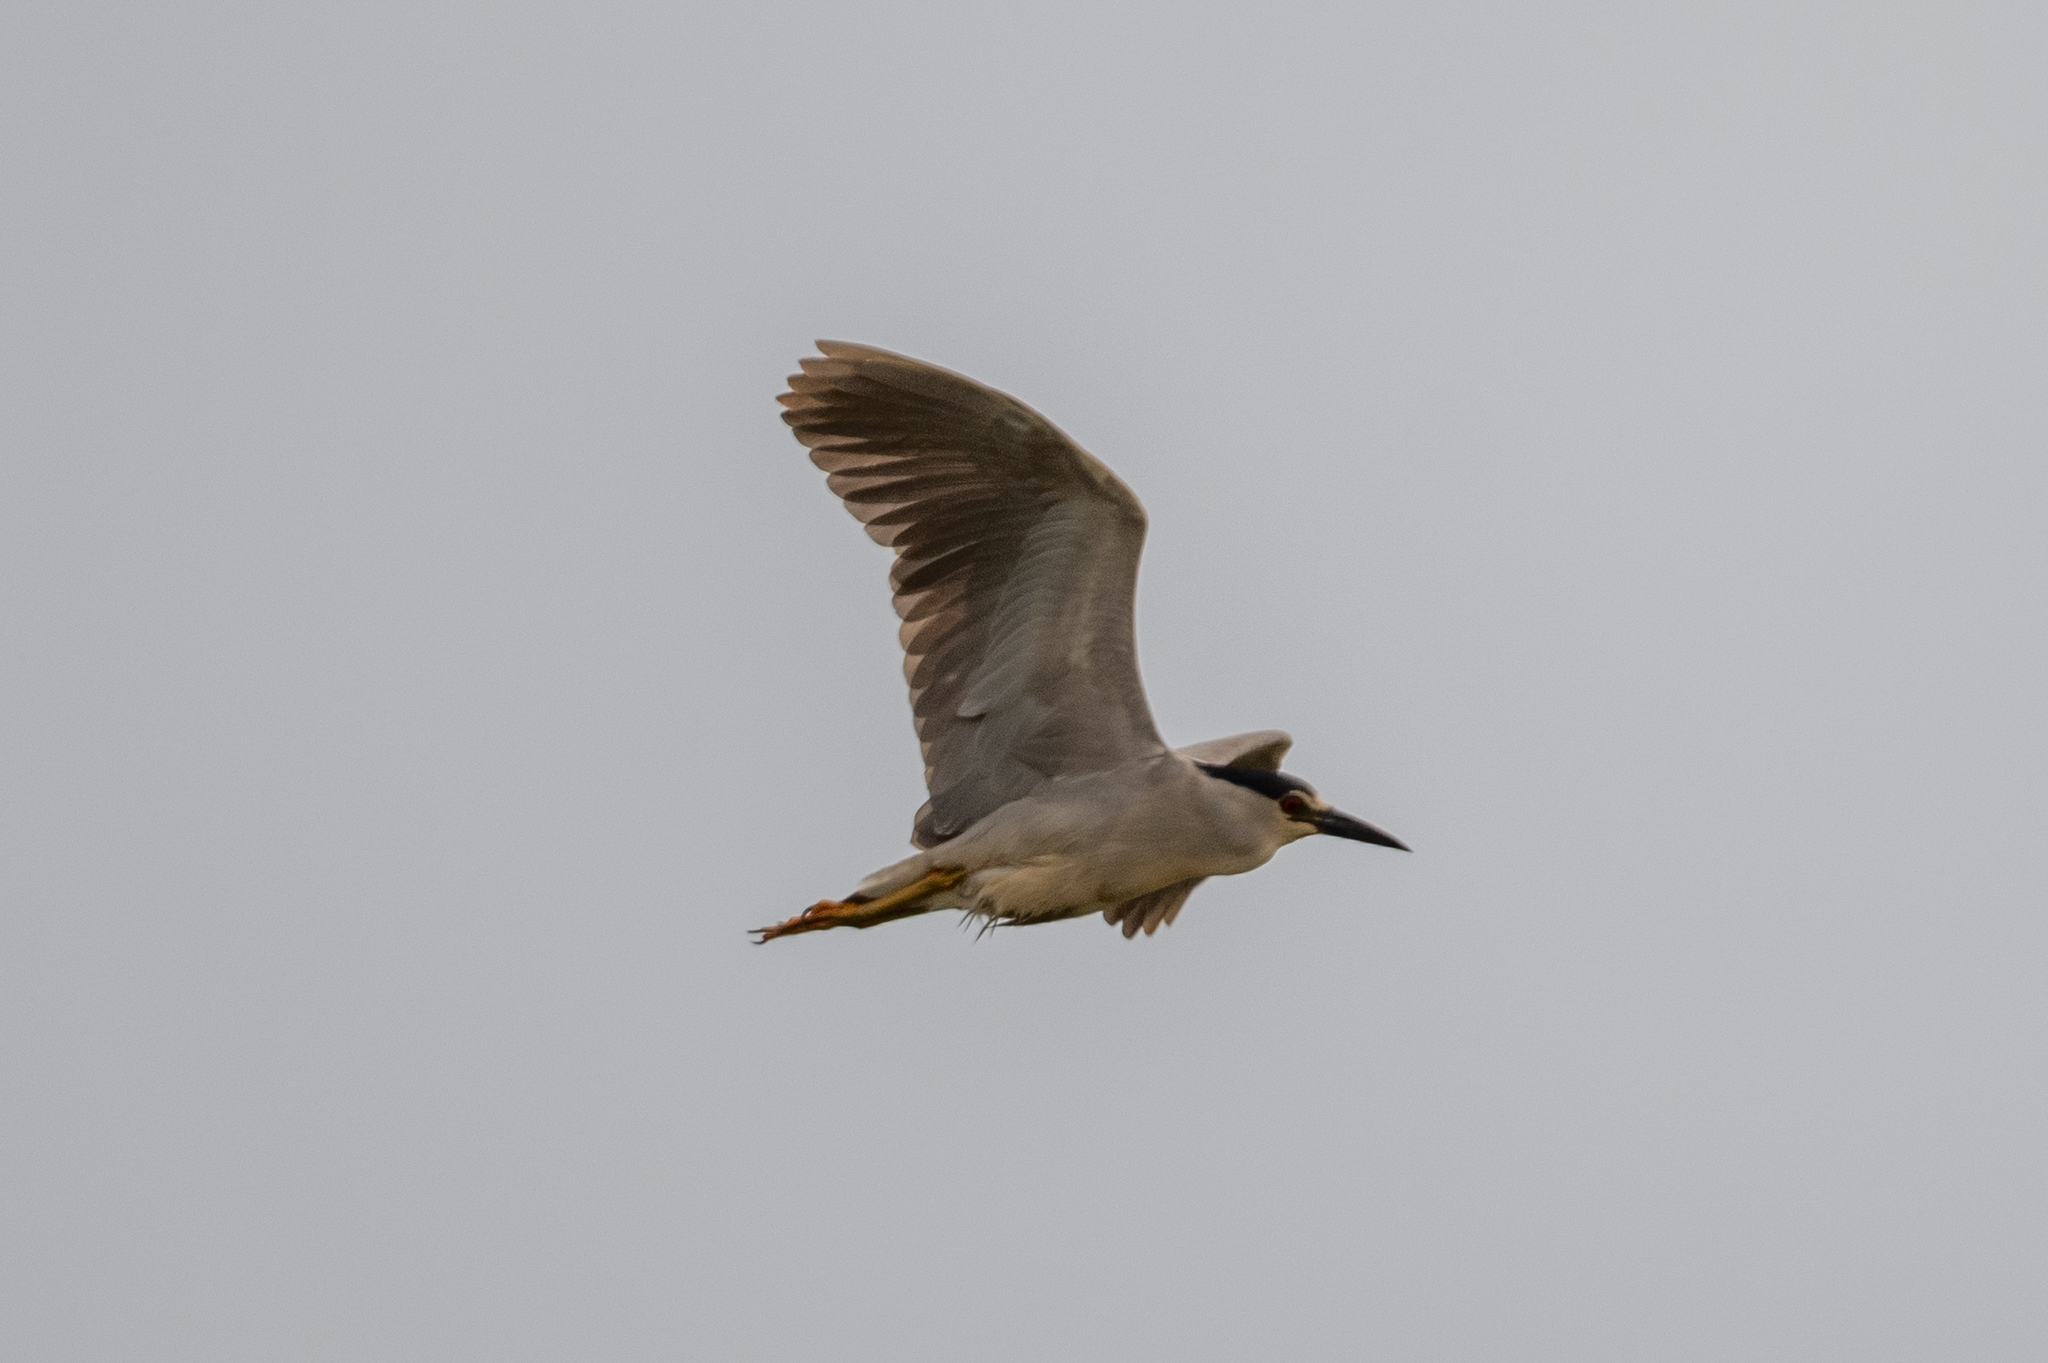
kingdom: Animalia
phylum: Chordata
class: Aves
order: Pelecaniformes
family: Ardeidae
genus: Nycticorax
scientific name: Nycticorax nycticorax
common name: Black-crowned night heron
